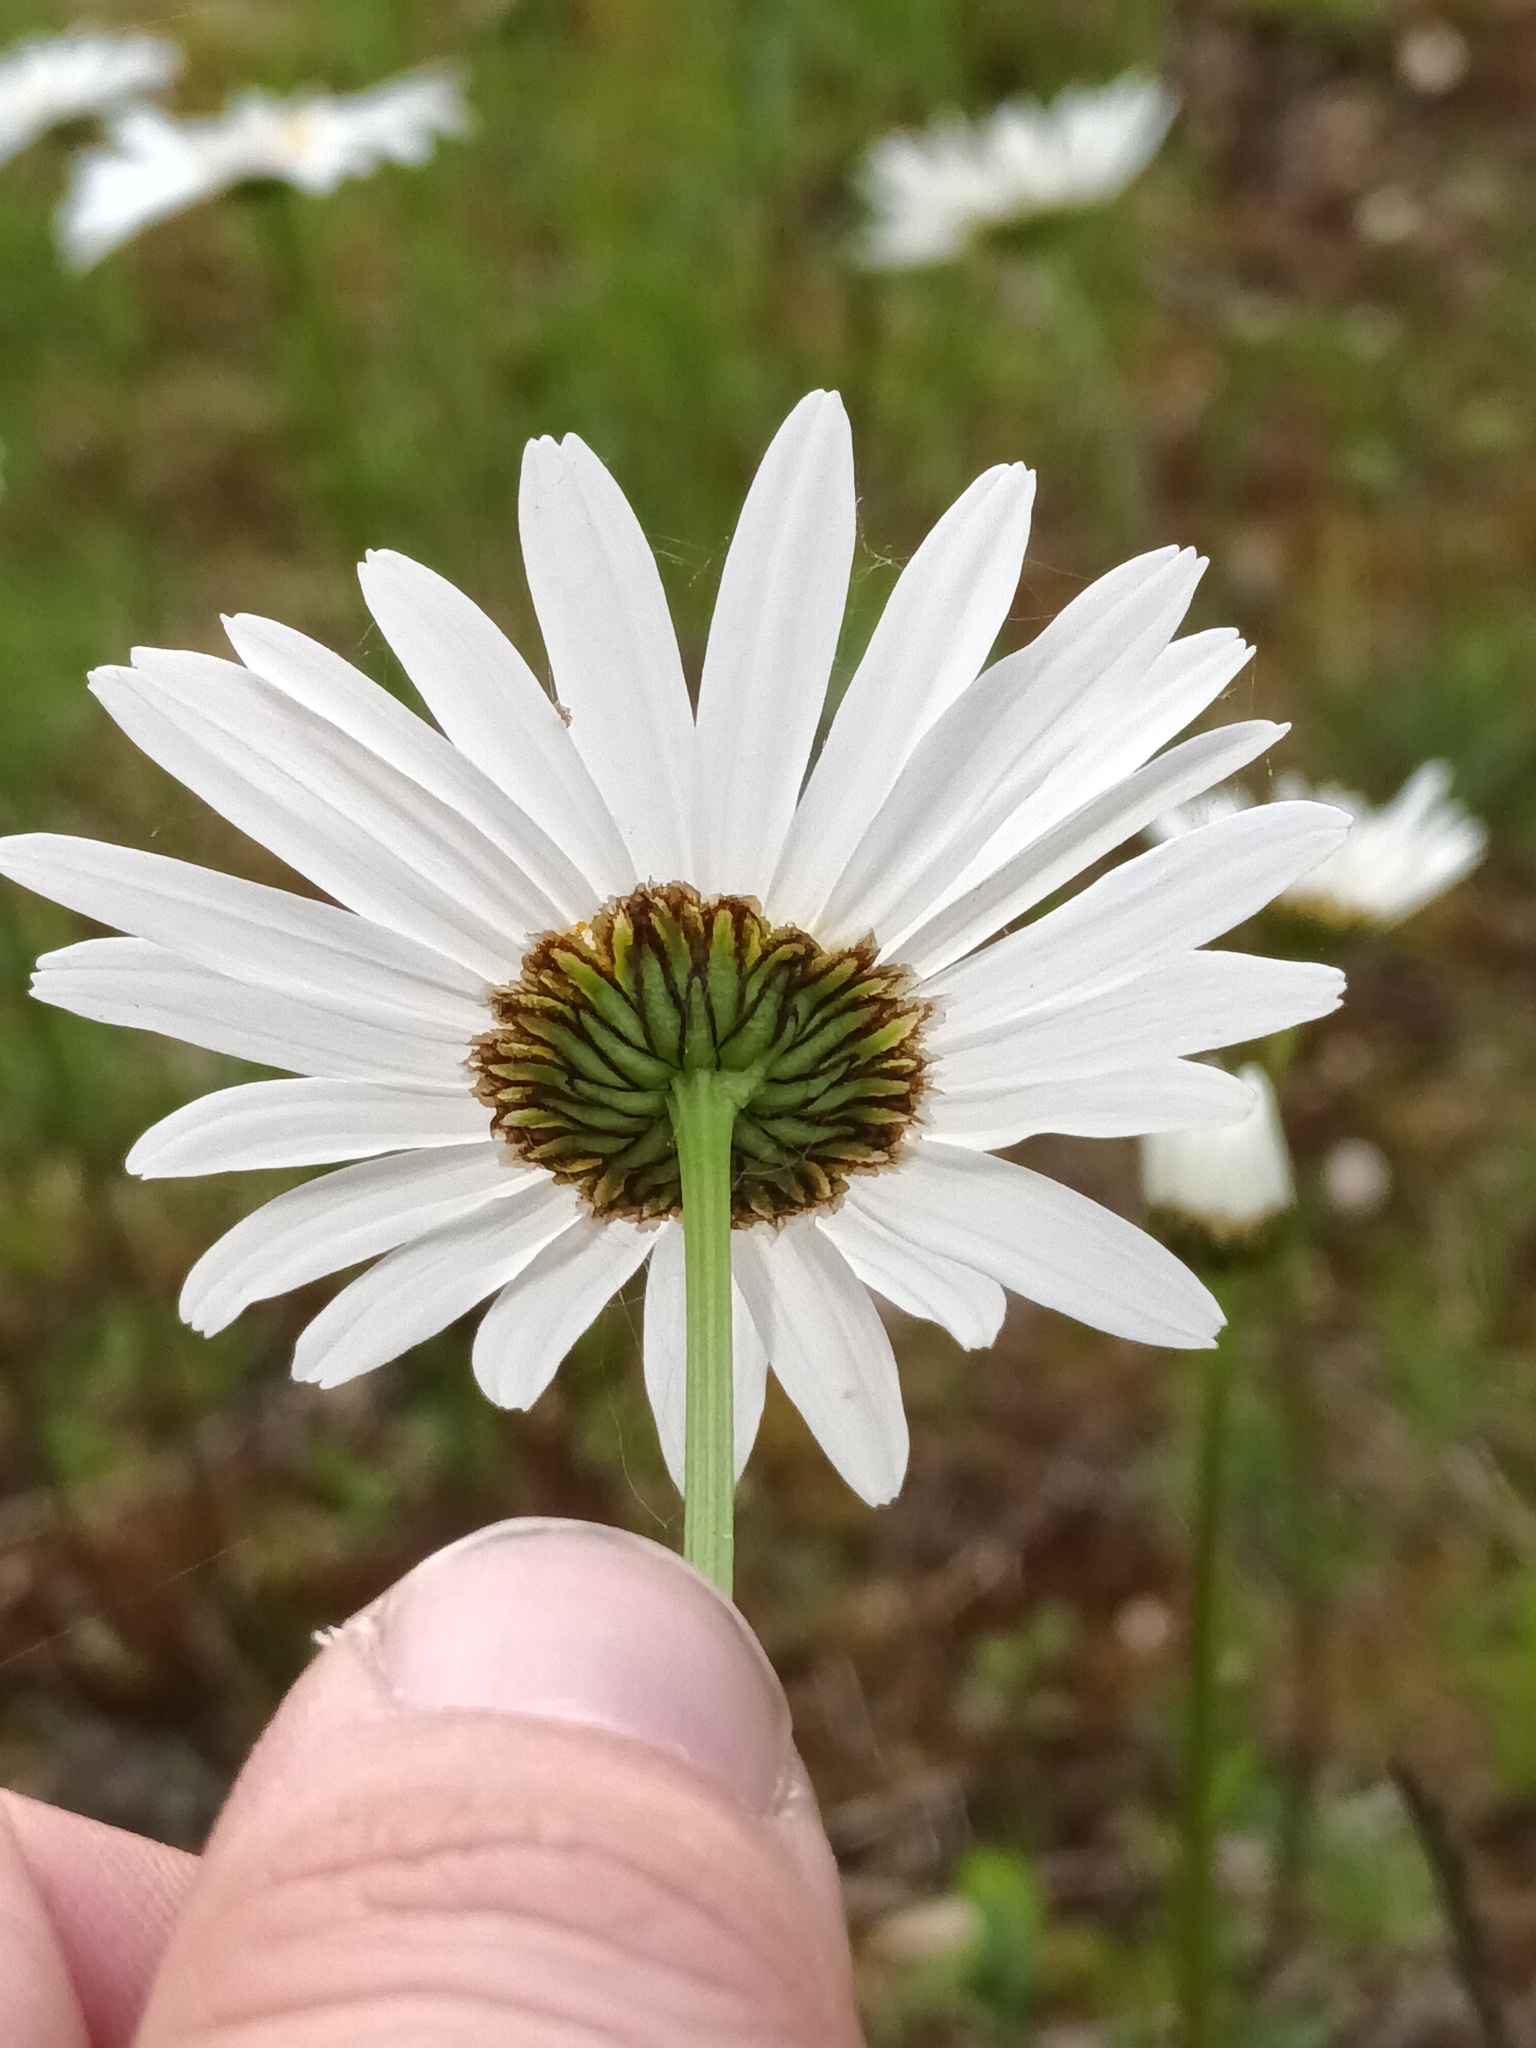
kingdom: Plantae
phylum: Tracheophyta
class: Magnoliopsida
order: Asterales
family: Asteraceae
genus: Leucanthemum
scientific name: Leucanthemum vulgare
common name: Oxeye daisy
